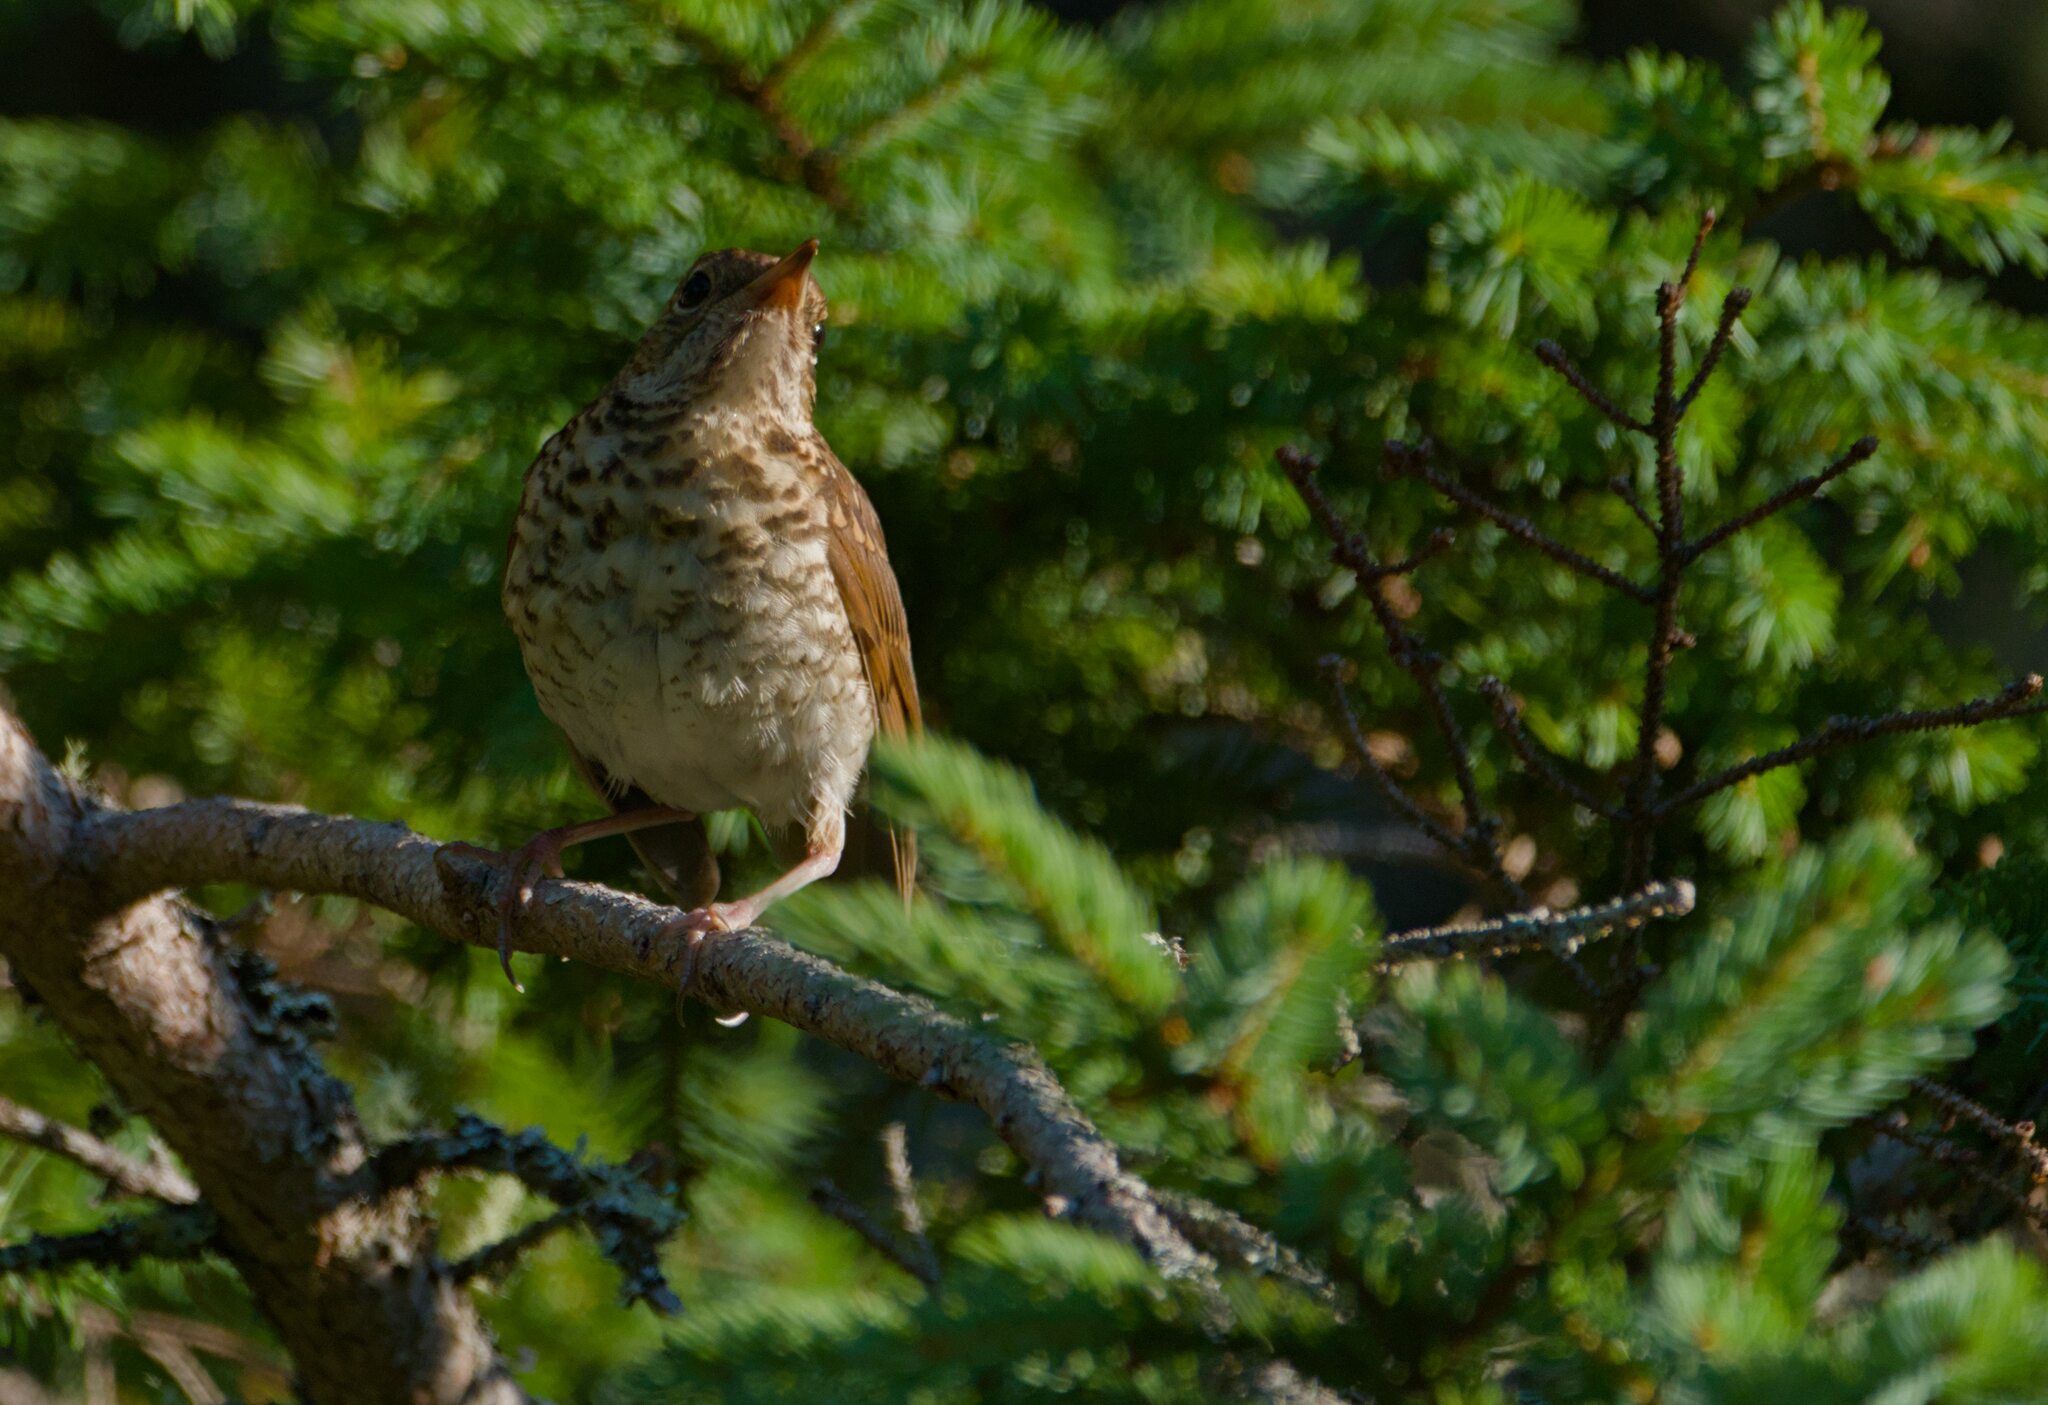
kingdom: Animalia
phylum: Chordata
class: Aves
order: Passeriformes
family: Turdidae
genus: Catharus
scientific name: Catharus ustulatus
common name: Swainson's thrush
